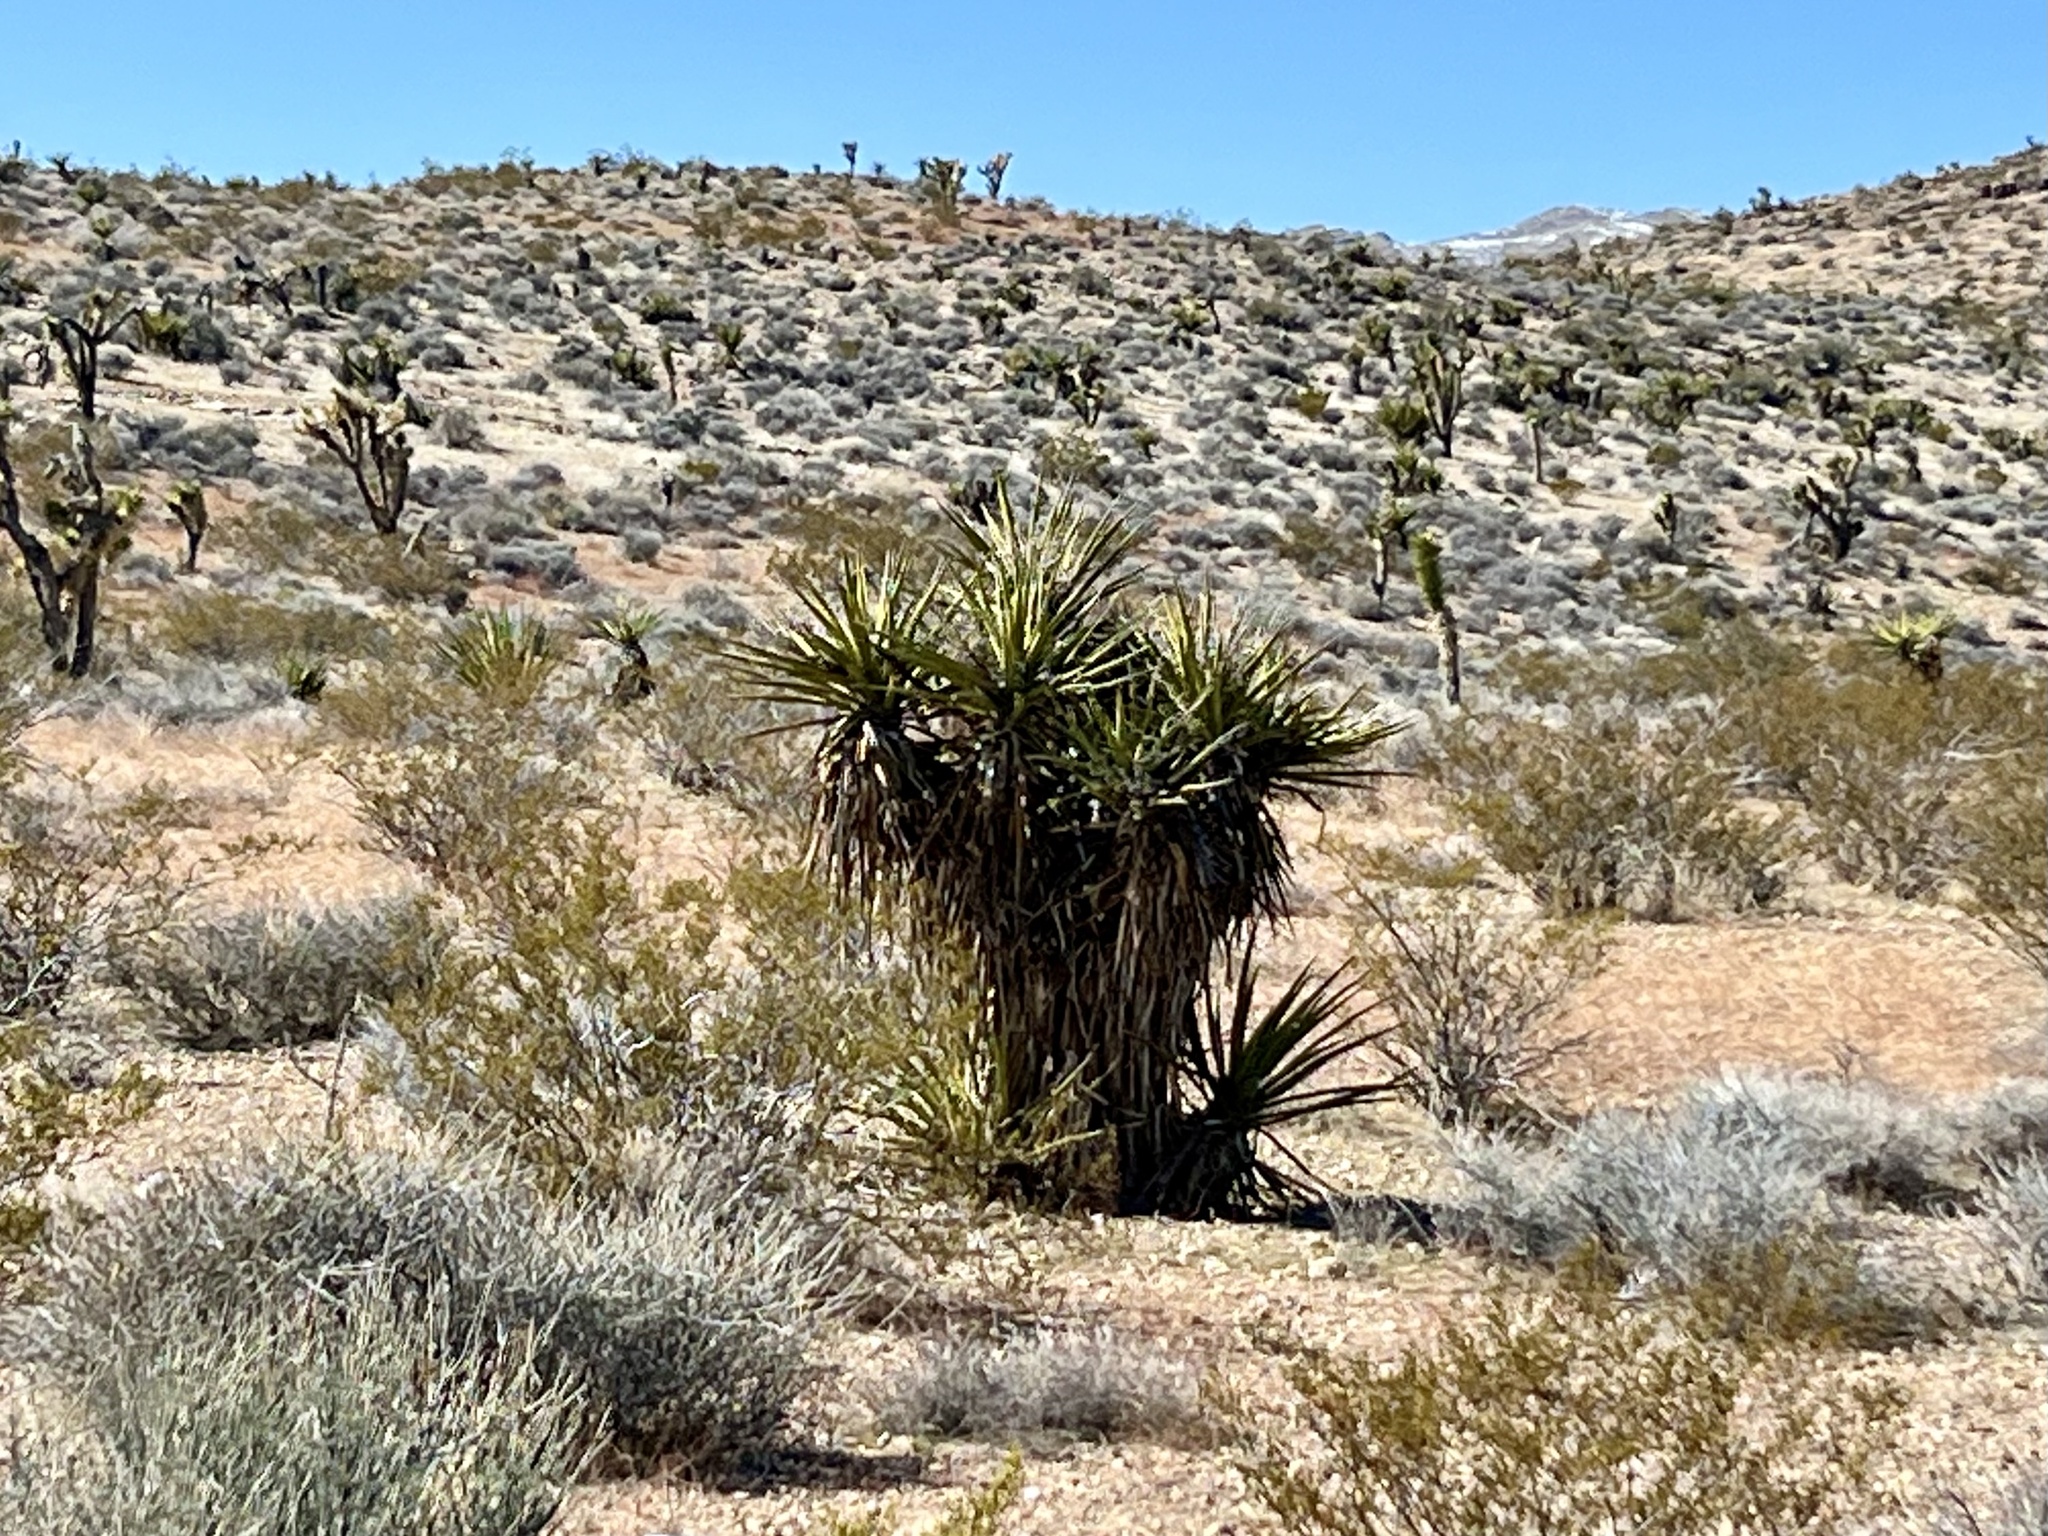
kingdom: Plantae
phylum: Tracheophyta
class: Liliopsida
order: Asparagales
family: Asparagaceae
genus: Yucca
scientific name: Yucca schidigera
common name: Mojave yucca
